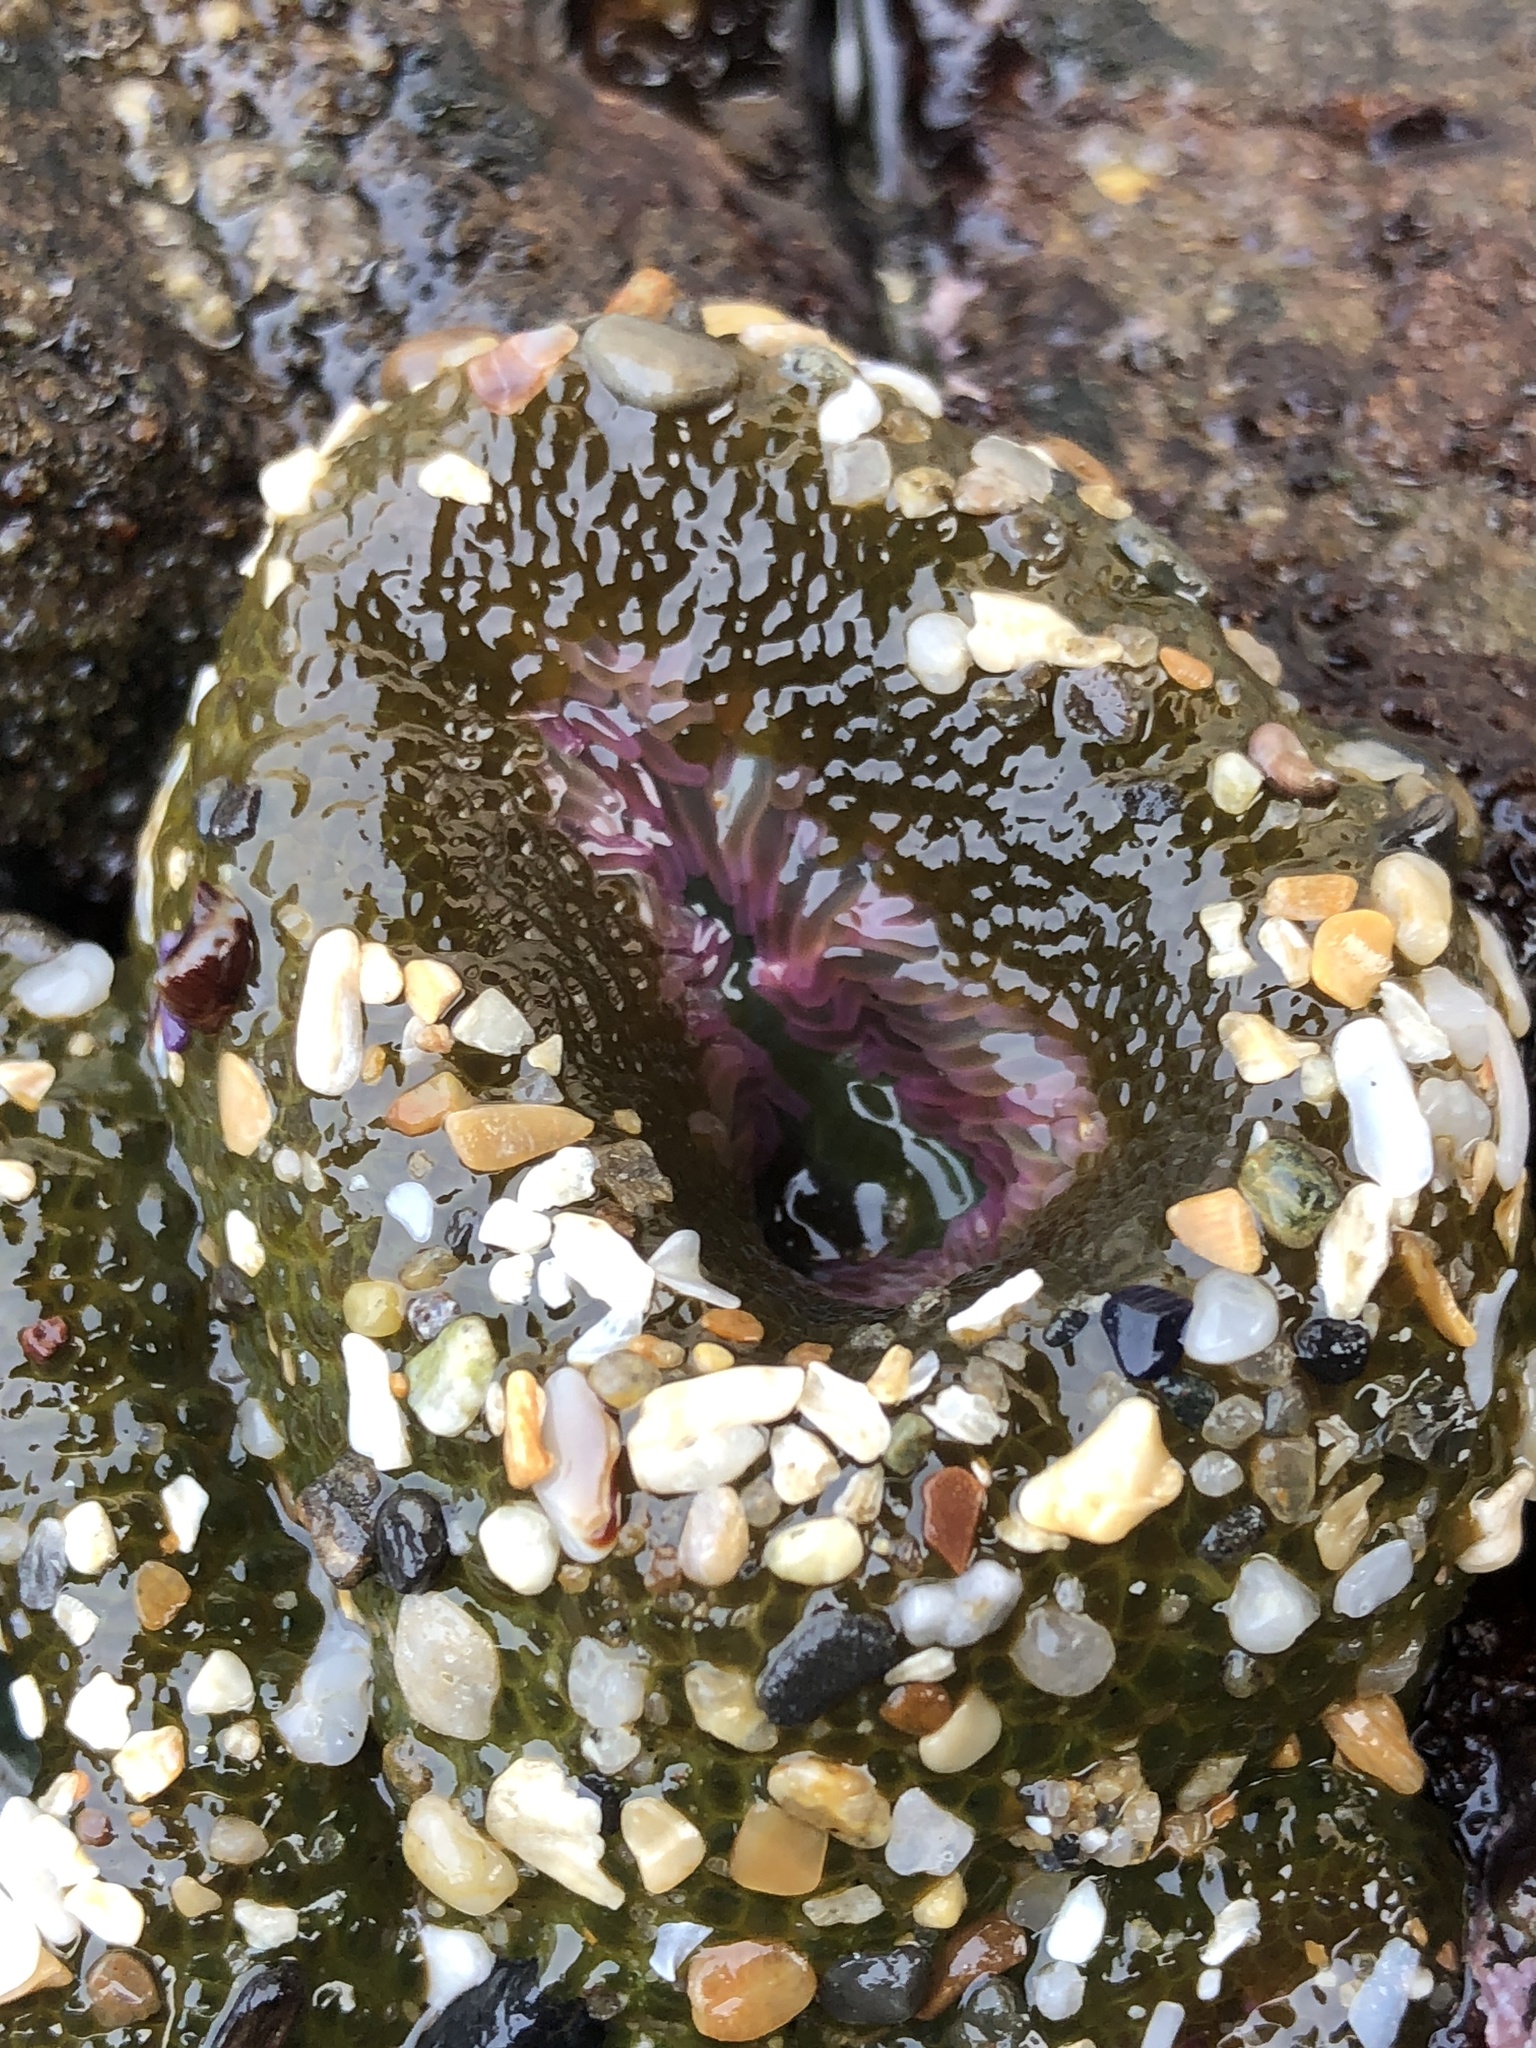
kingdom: Animalia
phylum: Cnidaria
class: Anthozoa
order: Actiniaria
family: Actiniidae
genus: Anthopleura
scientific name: Anthopleura elegantissima
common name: Clonal anemone
